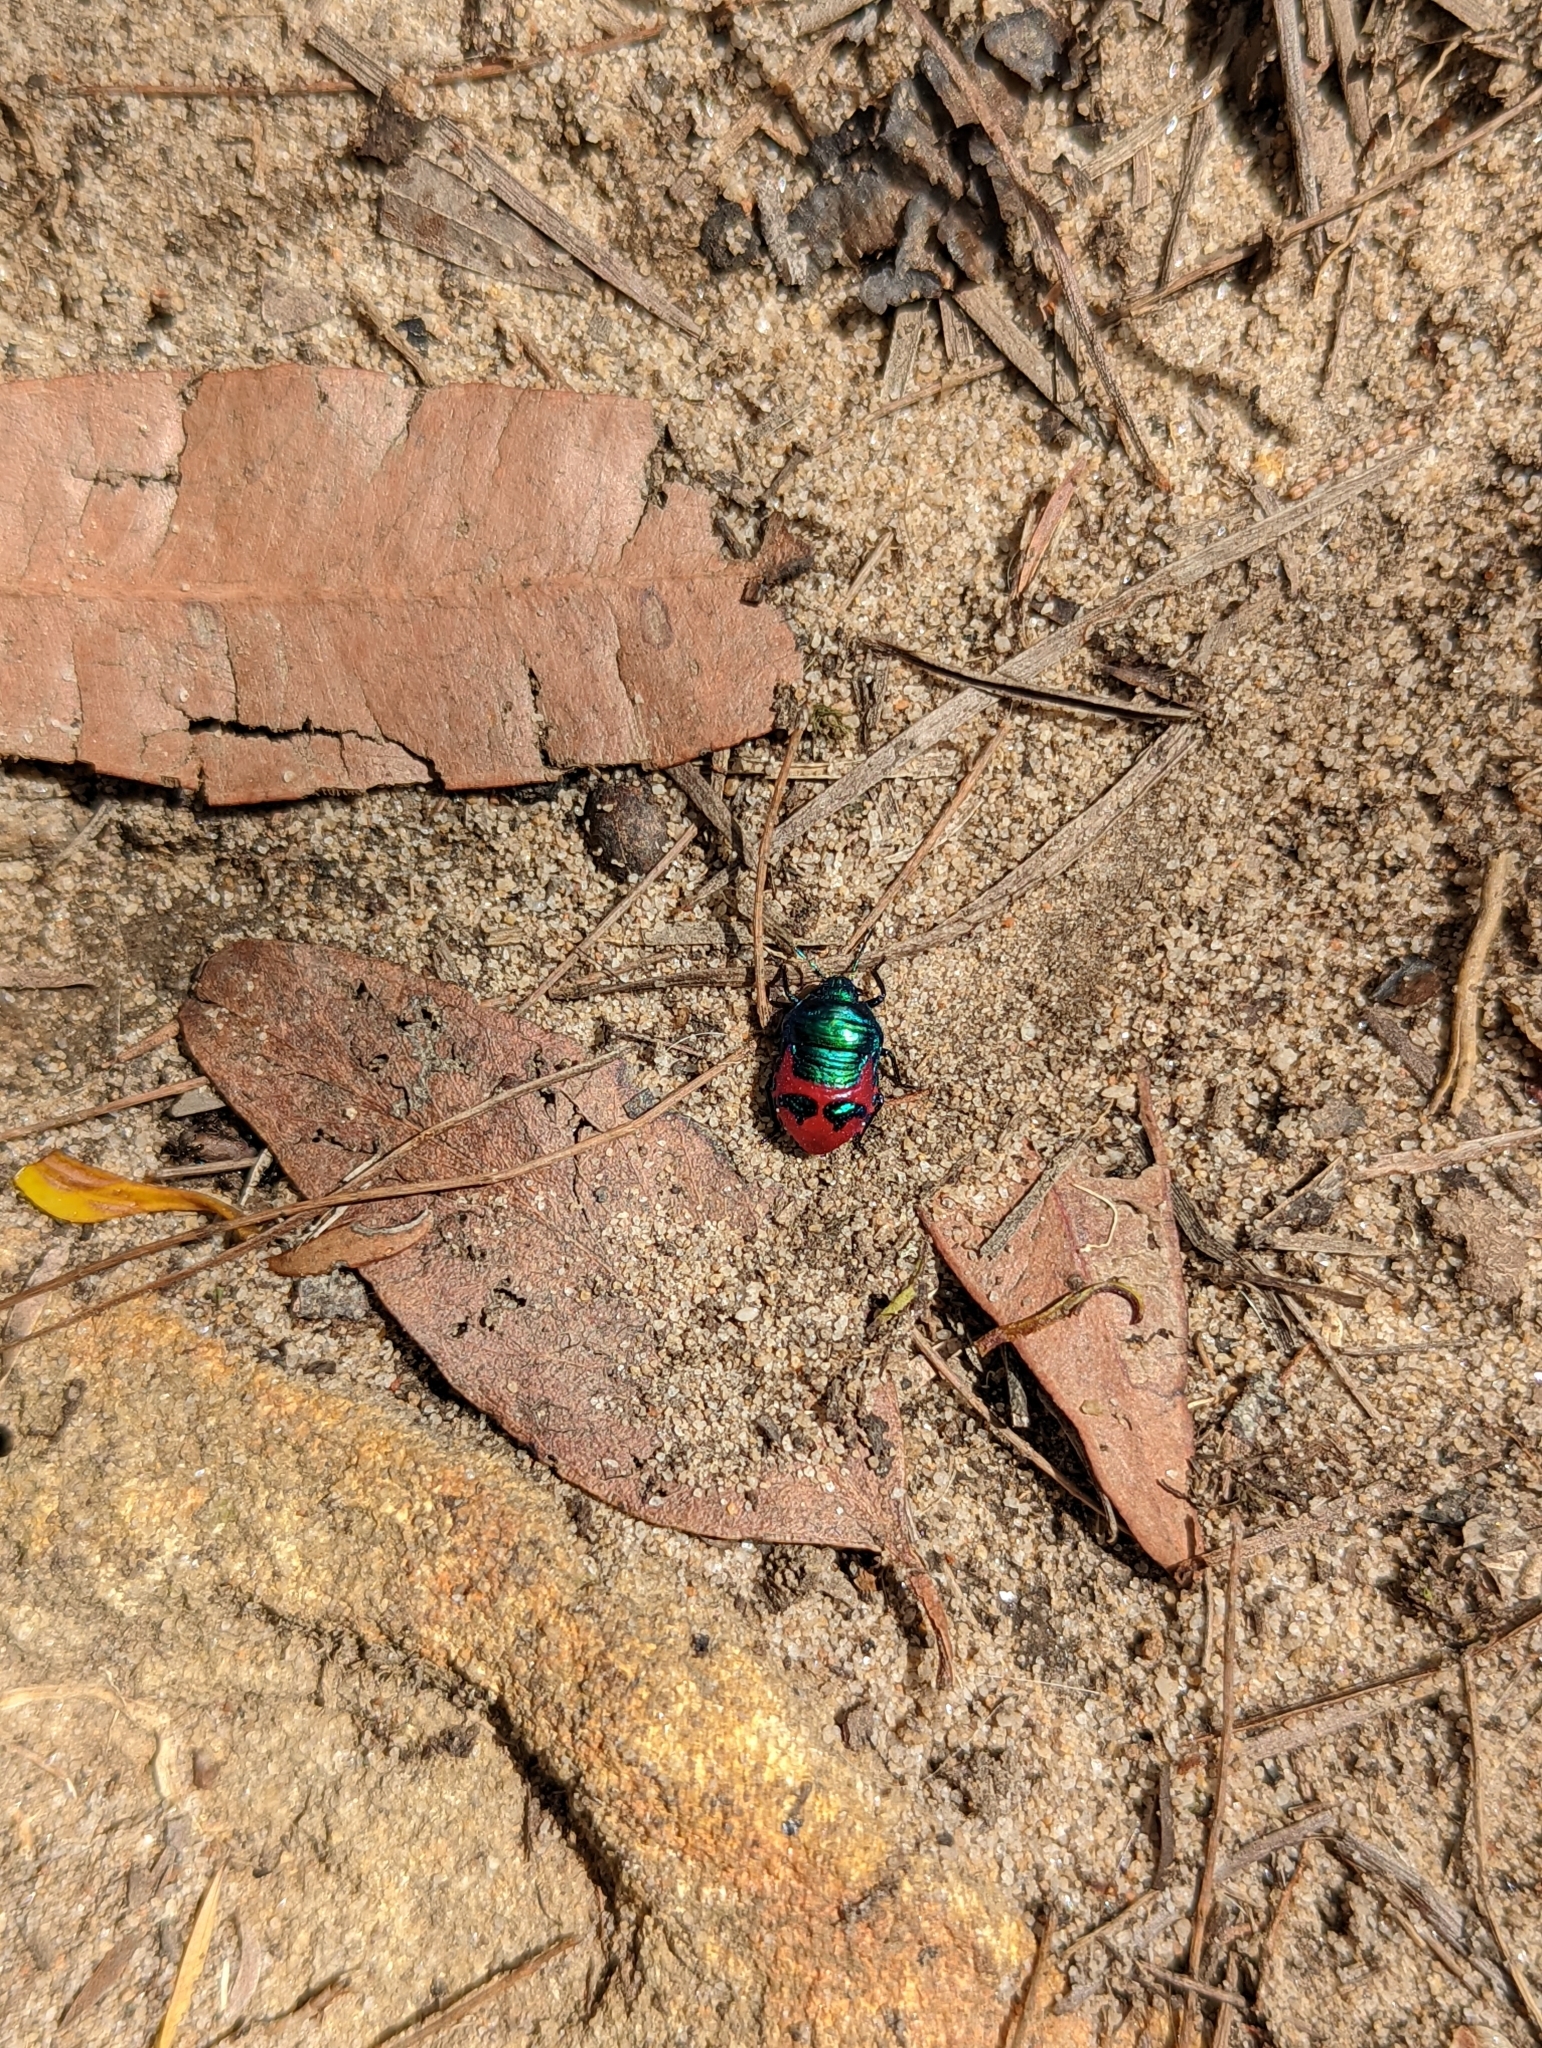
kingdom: Animalia
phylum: Arthropoda
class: Insecta
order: Hemiptera
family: Scutelleridae
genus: Choerocoris
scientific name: Choerocoris paganus
